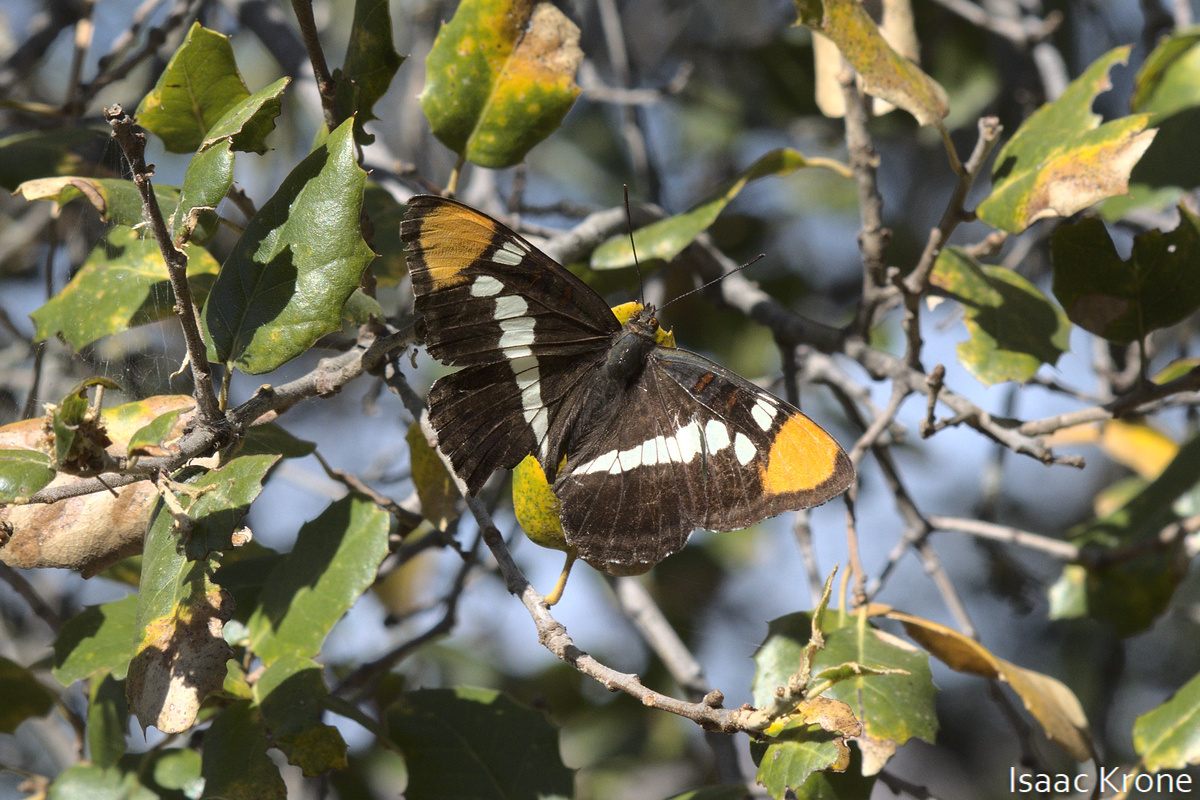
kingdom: Animalia
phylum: Arthropoda
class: Insecta
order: Lepidoptera
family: Nymphalidae
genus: Limenitis
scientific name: Limenitis bredowii
